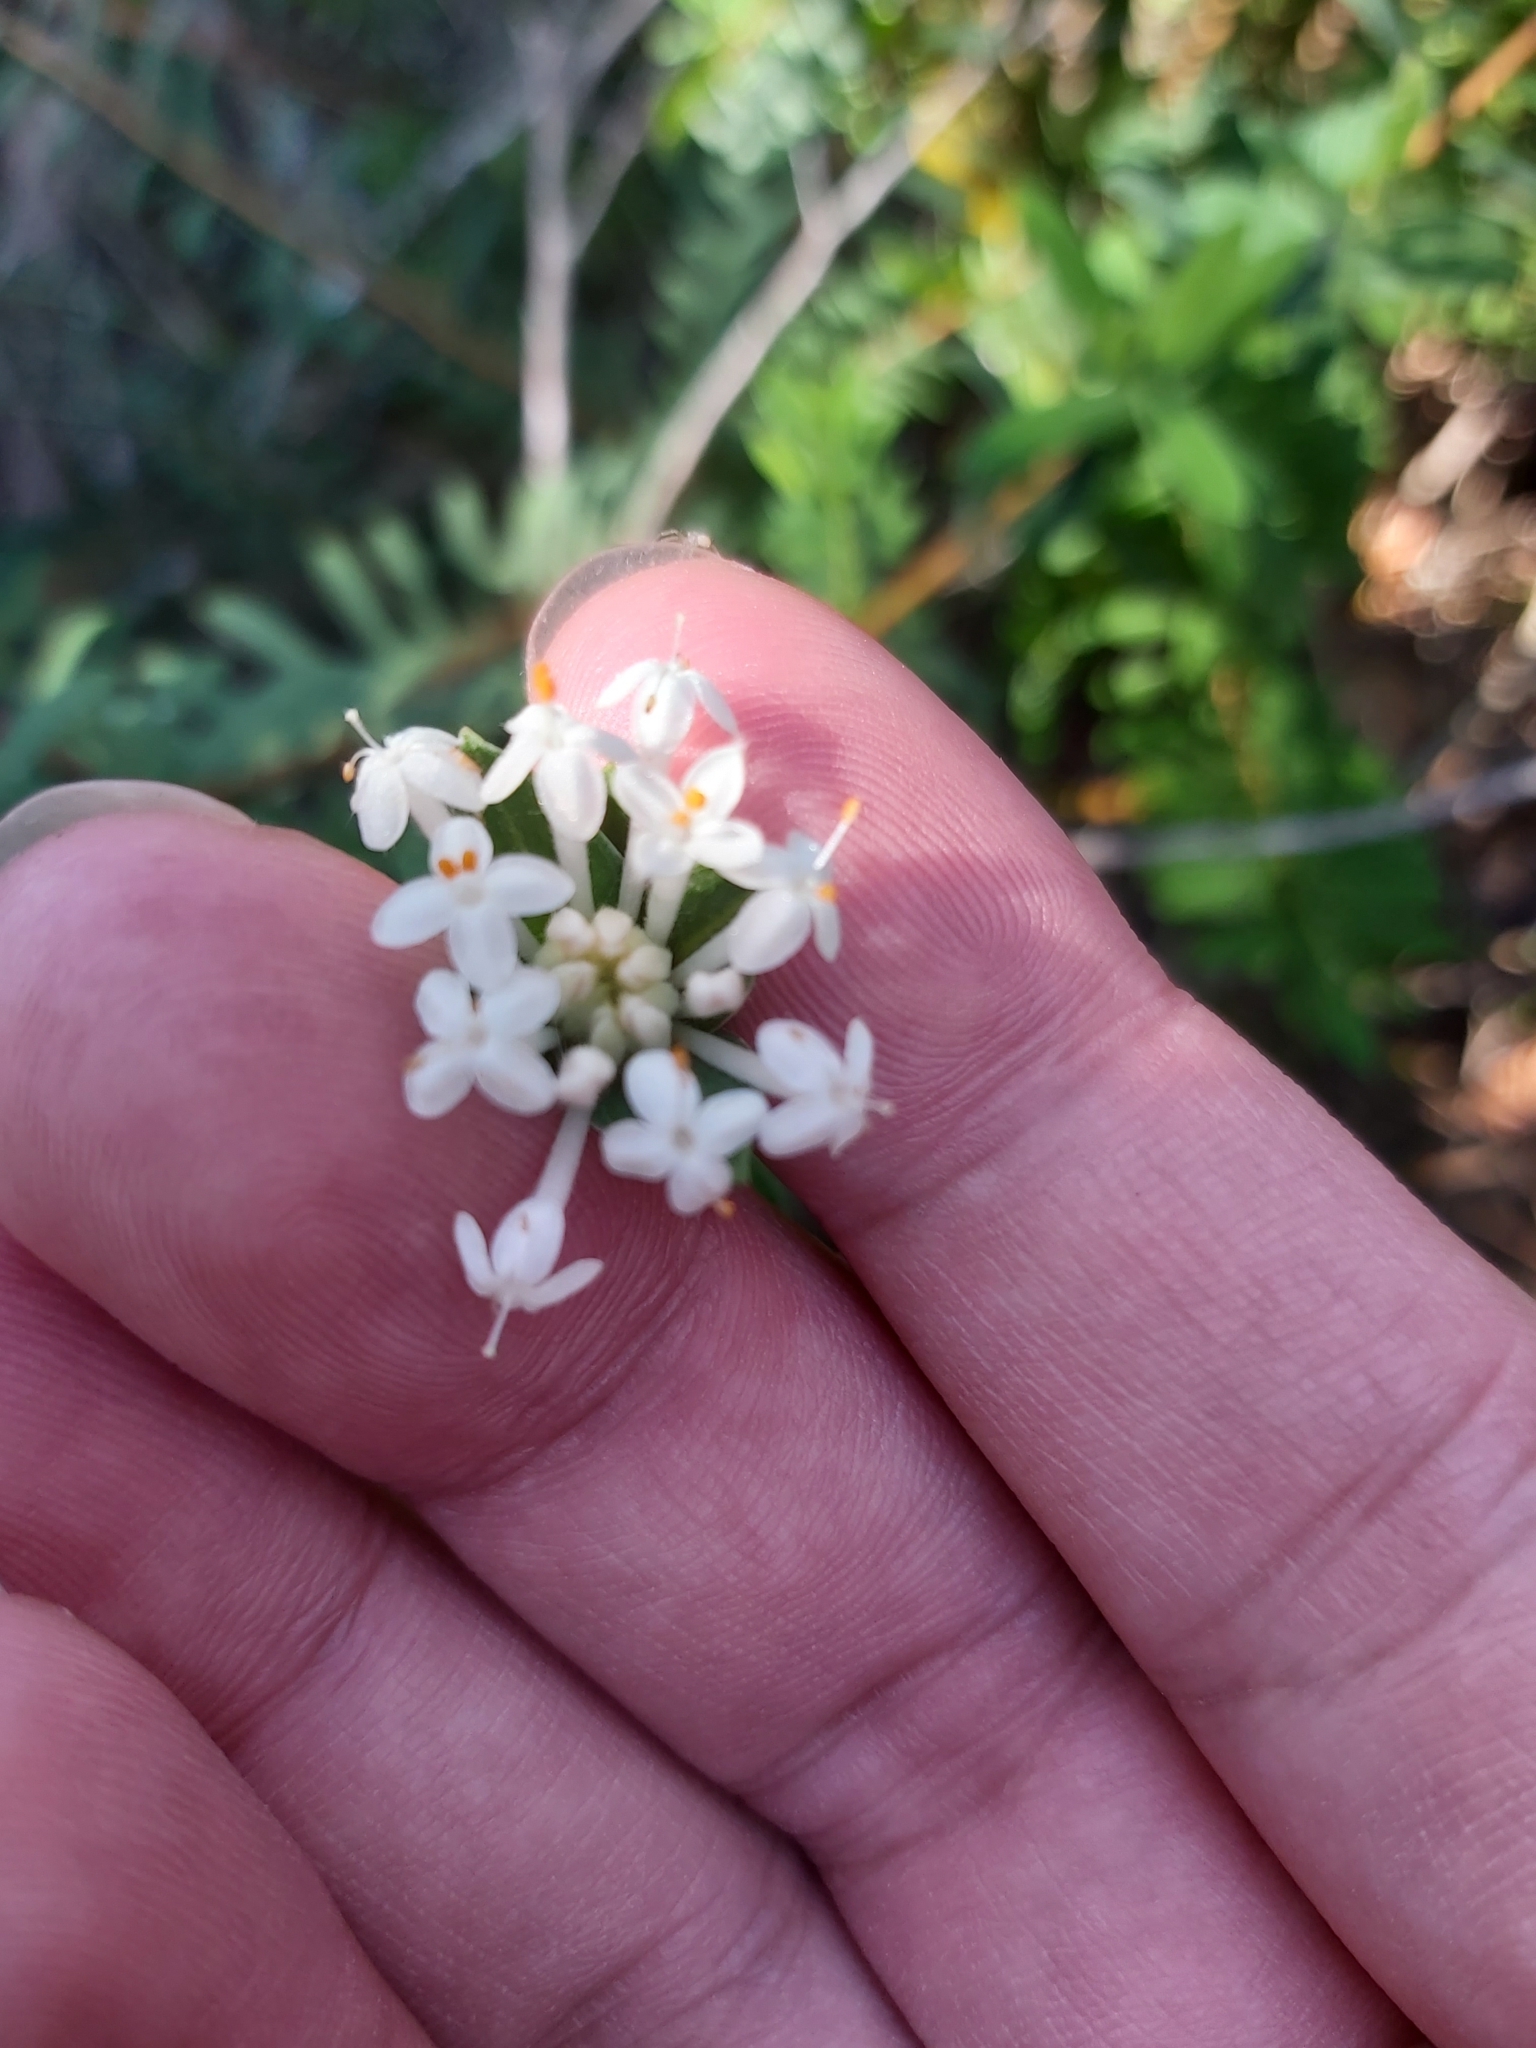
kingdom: Plantae
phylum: Tracheophyta
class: Magnoliopsida
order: Malvales
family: Thymelaeaceae
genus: Pimelea
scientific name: Pimelea linifolia
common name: Queen-of-the-bush
